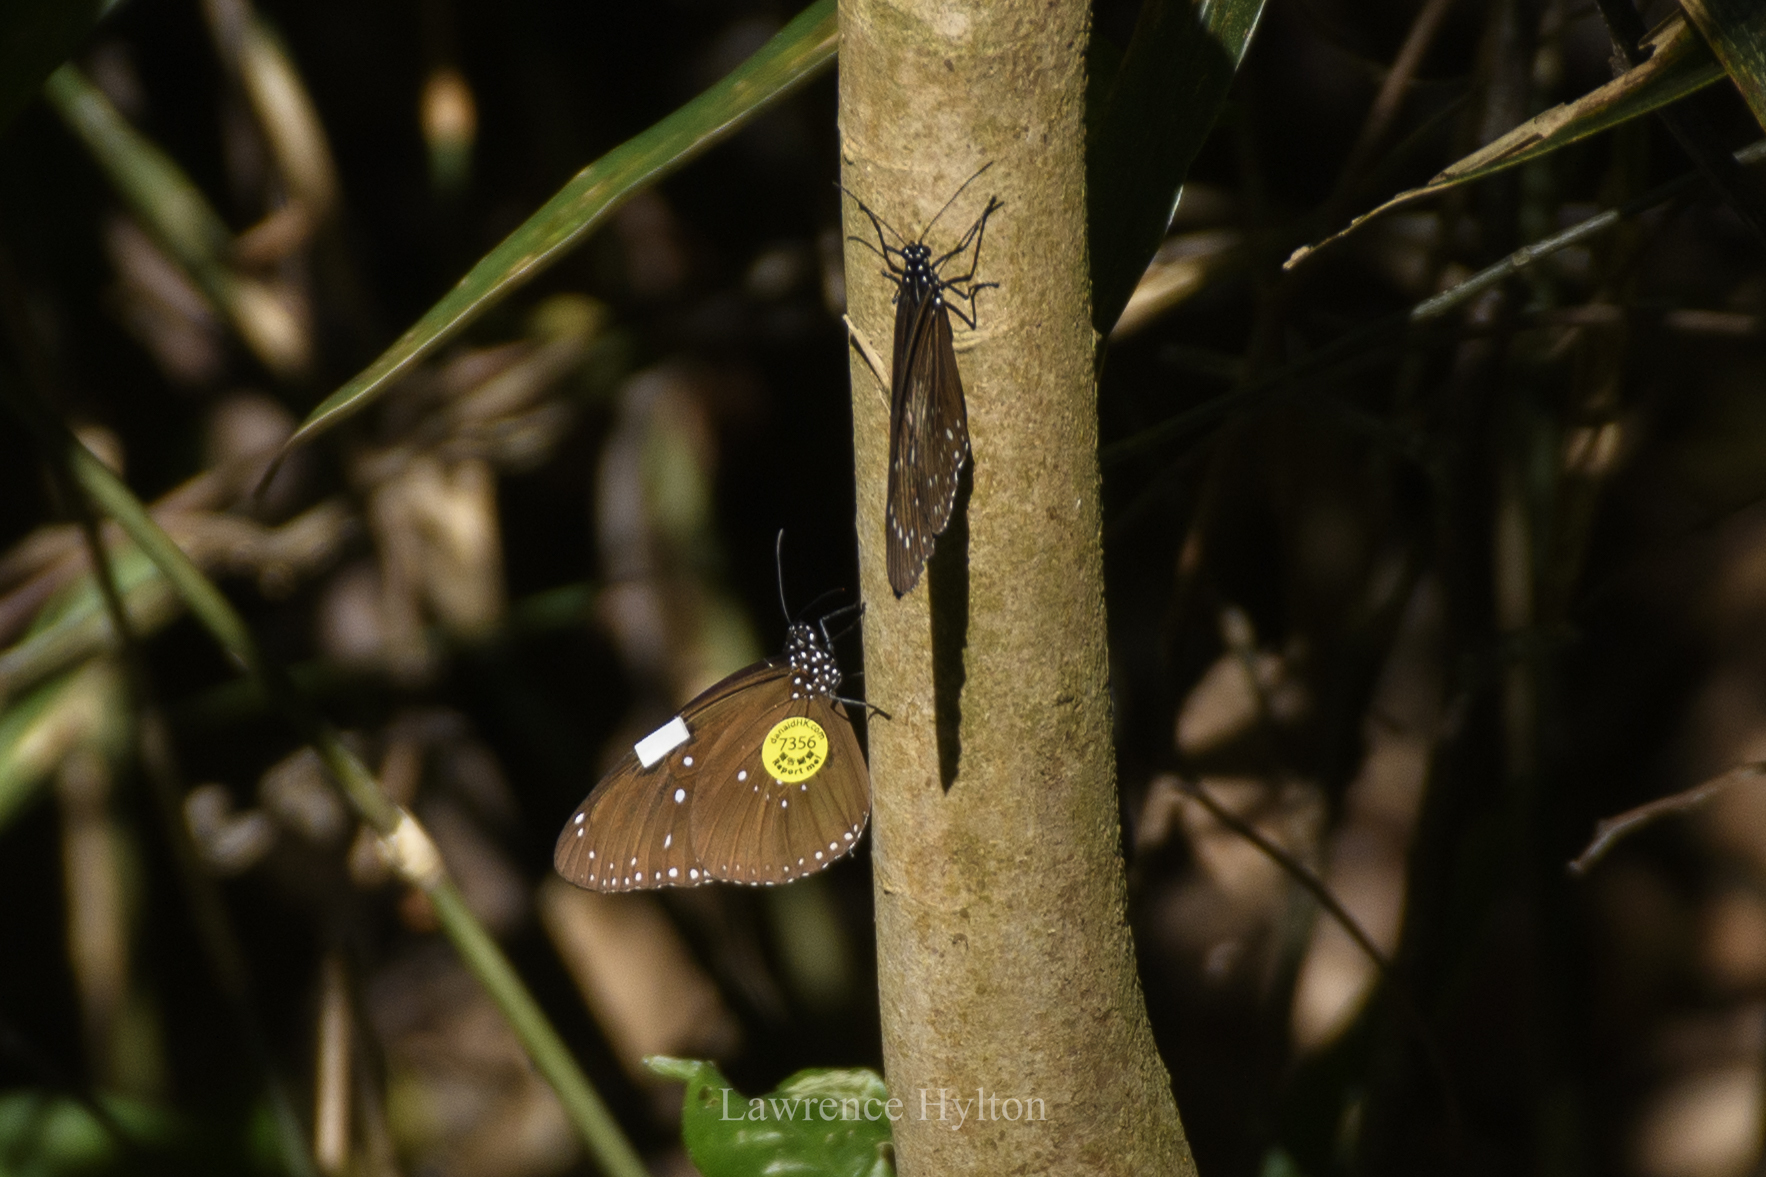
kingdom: Animalia
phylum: Arthropoda
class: Insecta
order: Lepidoptera
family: Nymphalidae
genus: Euploea
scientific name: Euploea core
